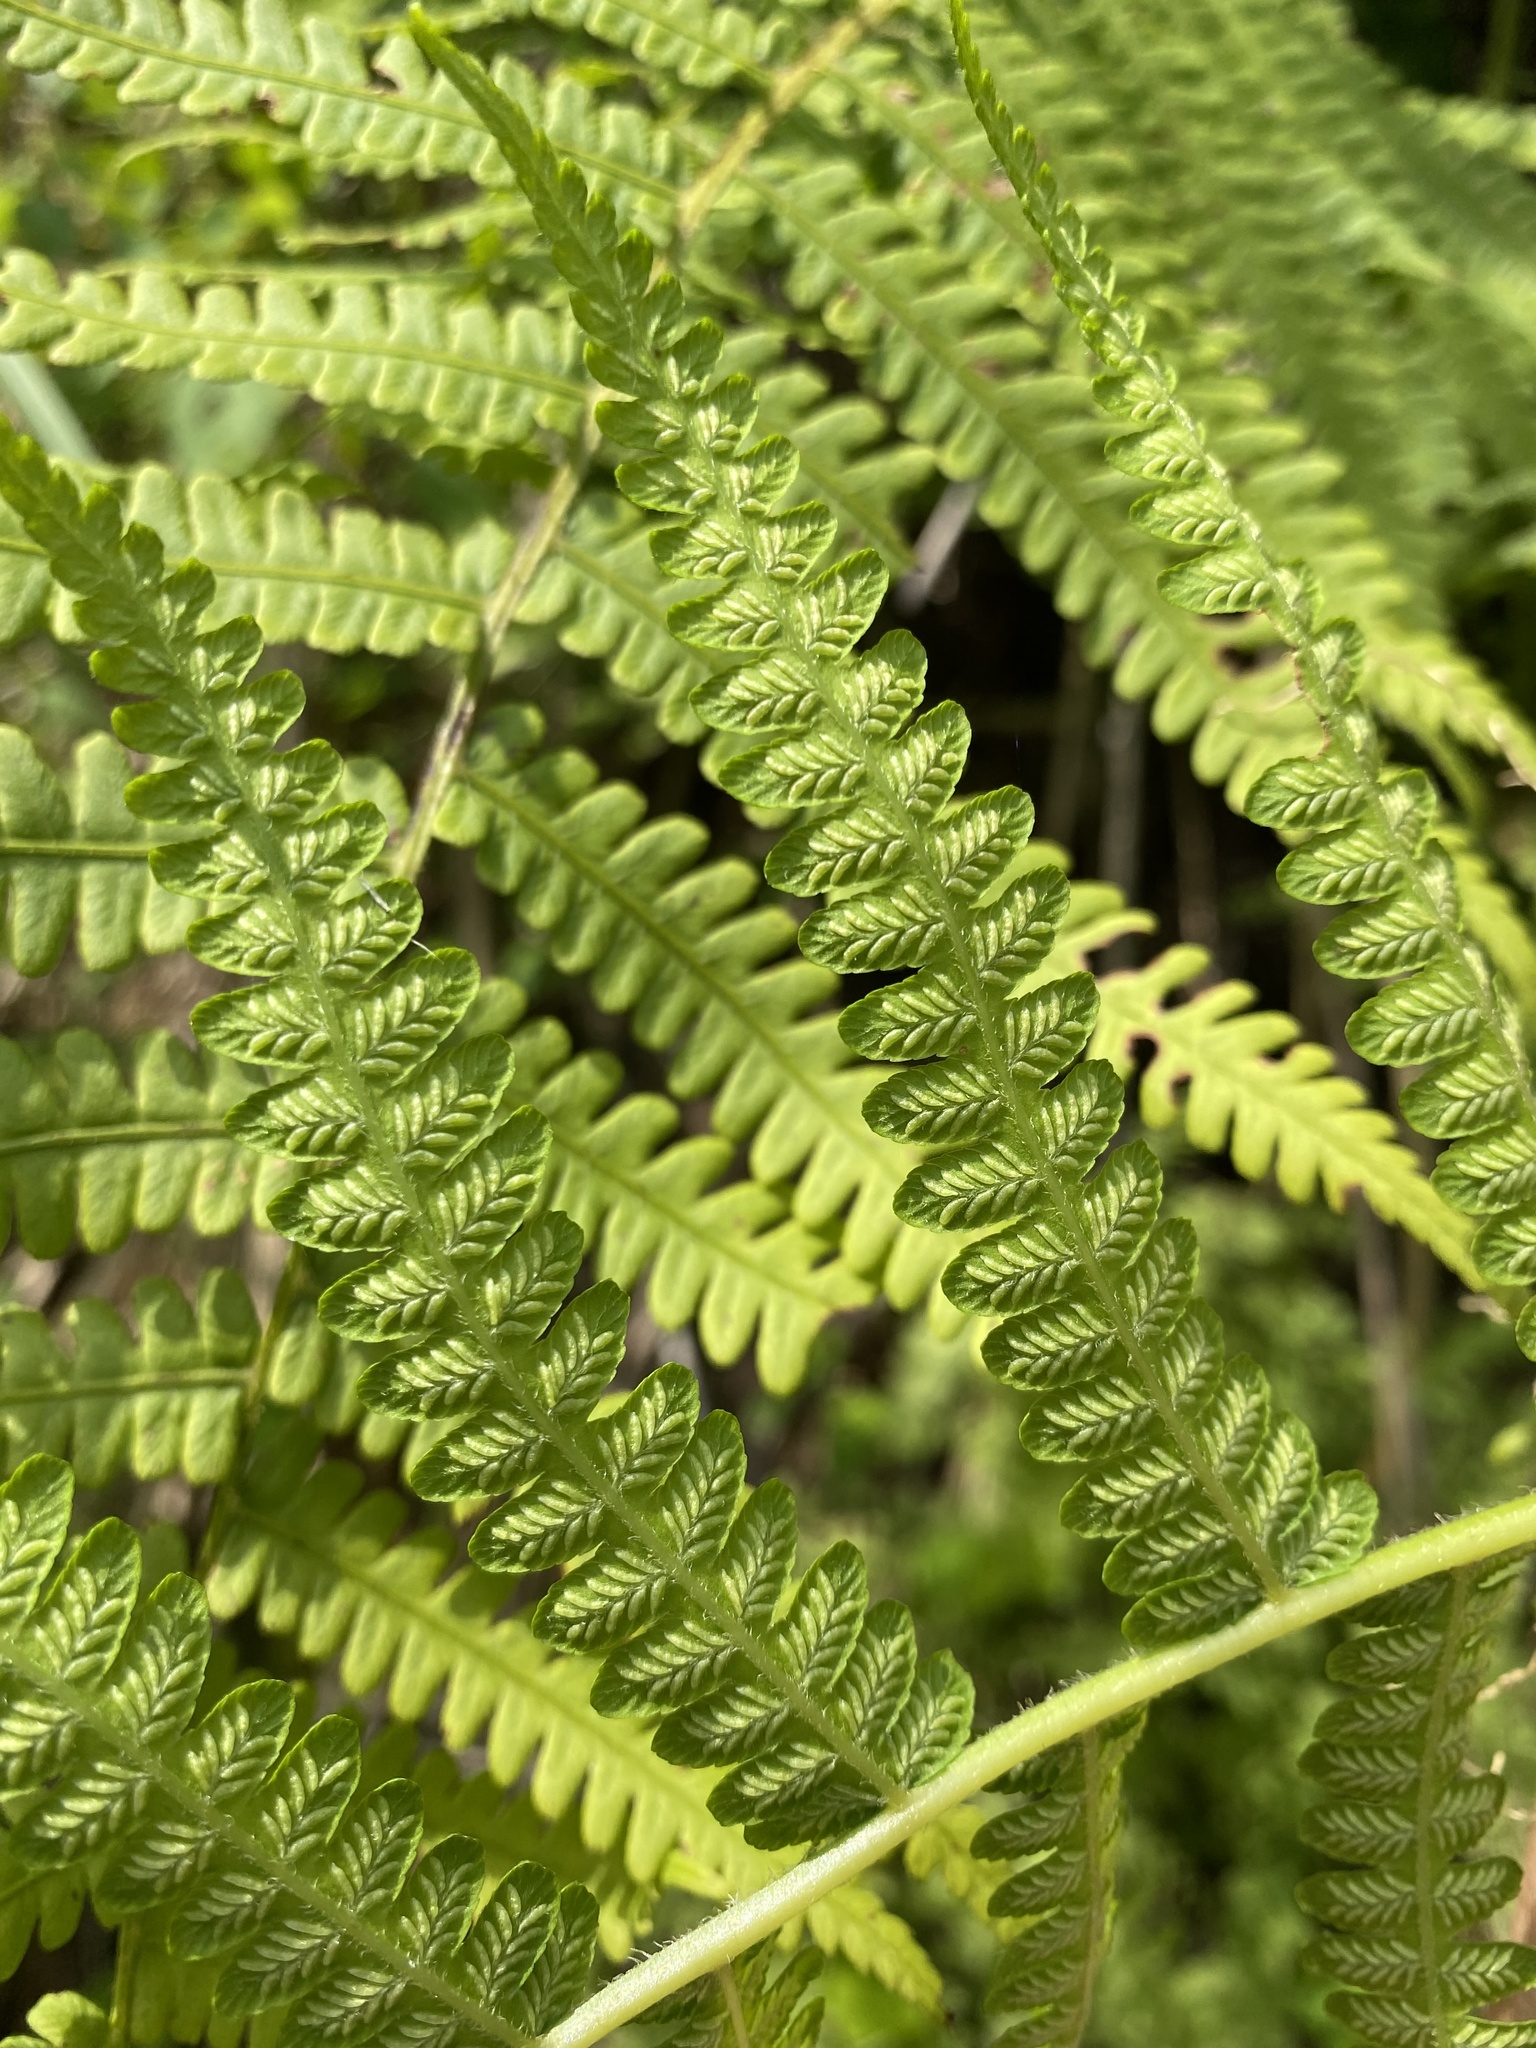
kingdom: Plantae
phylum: Tracheophyta
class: Polypodiopsida
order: Polypodiales
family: Athyriaceae
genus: Deparia
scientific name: Deparia acrostichoides
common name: Silver false spleenwort
